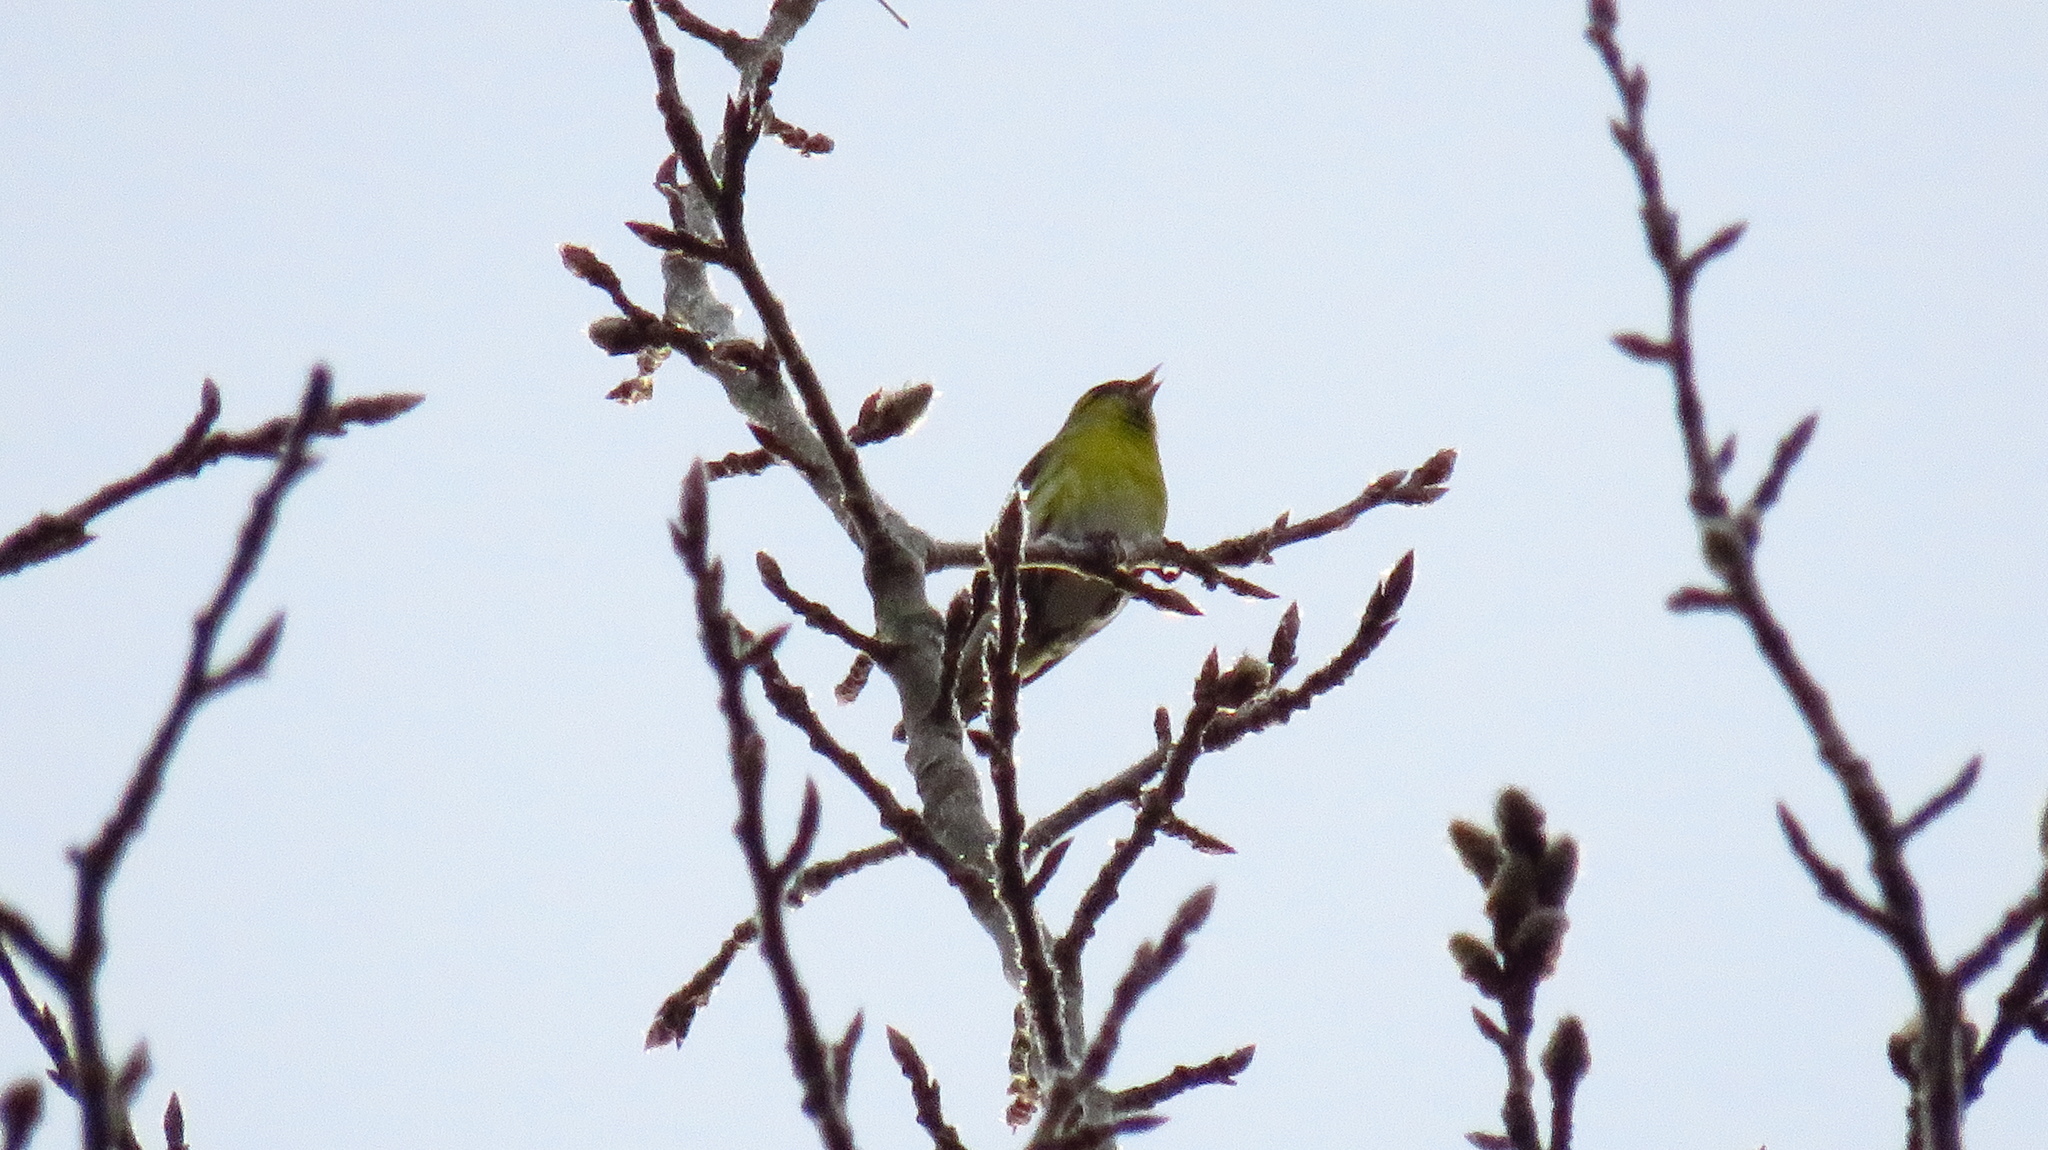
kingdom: Animalia
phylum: Chordata
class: Aves
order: Passeriformes
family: Fringillidae
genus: Spinus
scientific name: Spinus spinus
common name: Eurasian siskin
